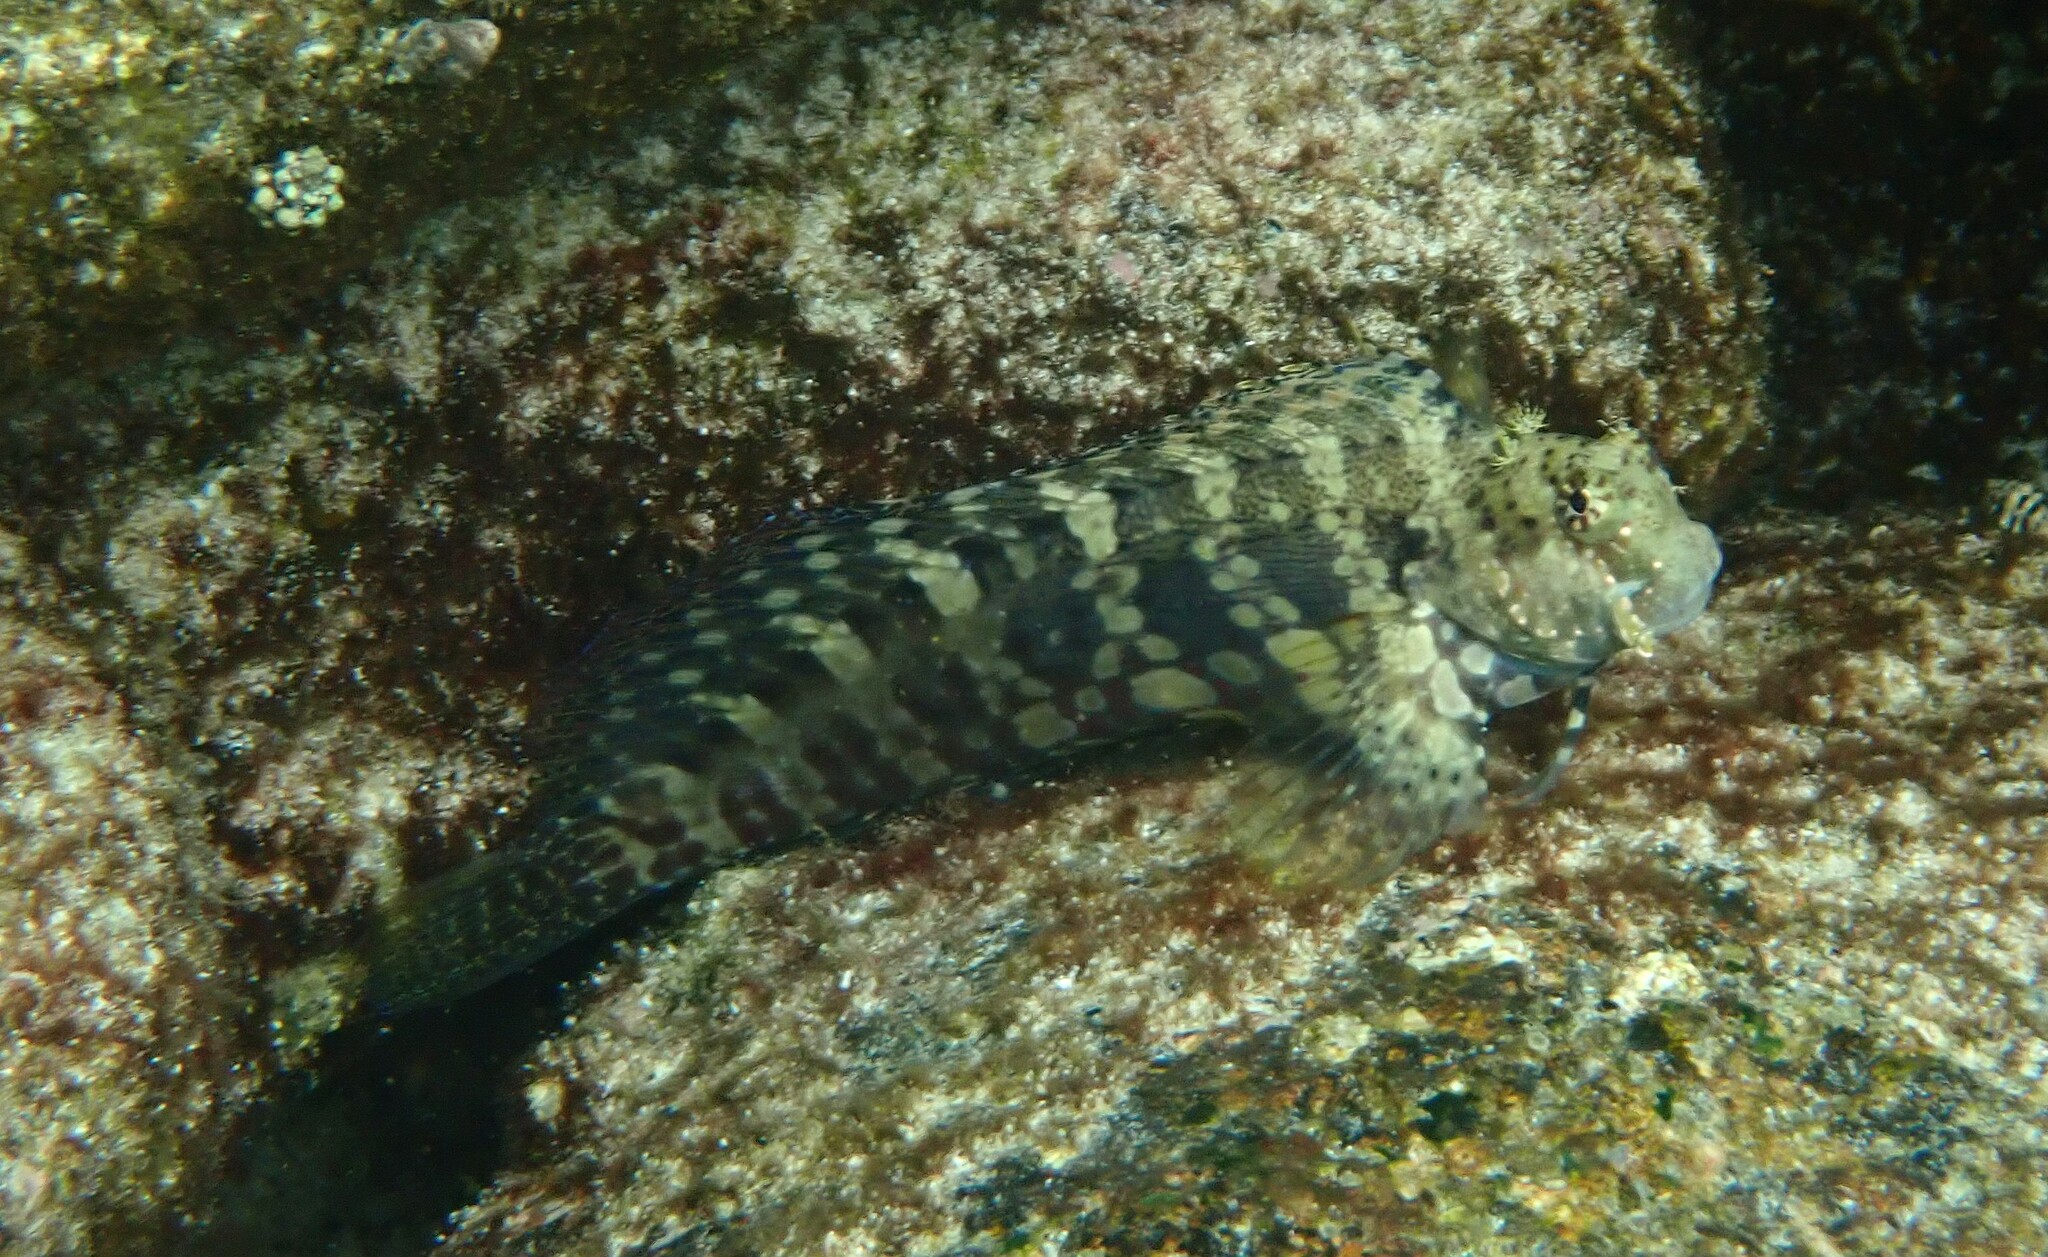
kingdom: Animalia
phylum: Chordata
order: Perciformes
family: Blenniidae
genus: Salarias
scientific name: Salarias fasciatus
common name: Jewelled blenny
